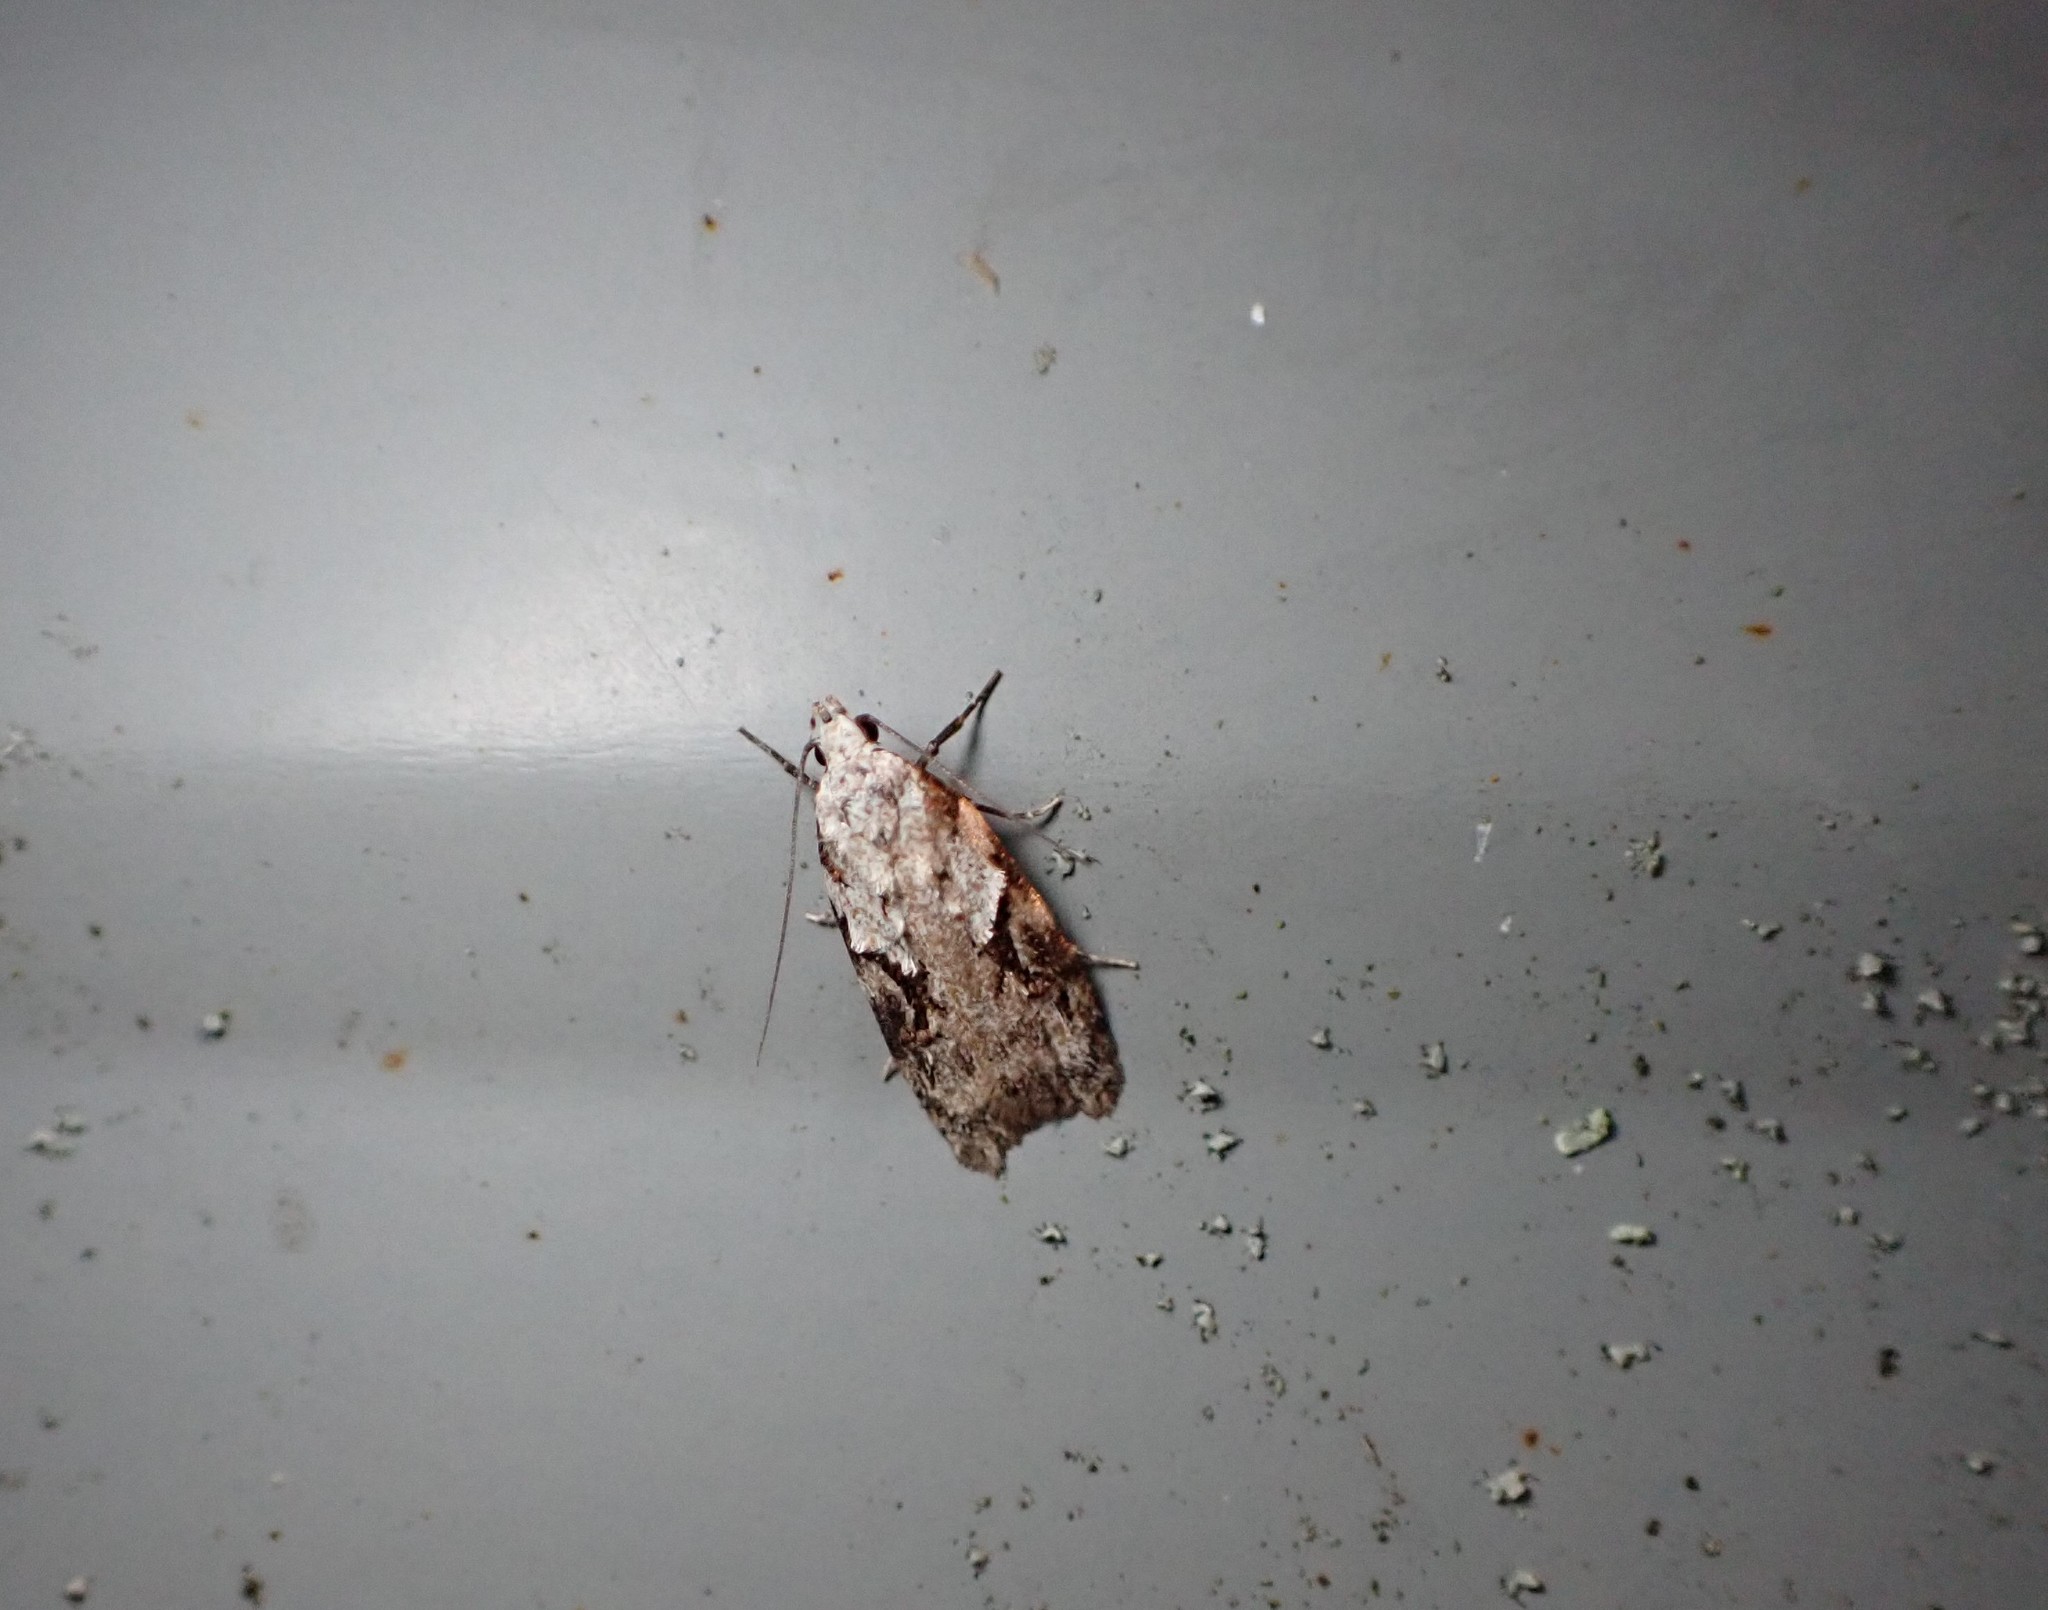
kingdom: Animalia
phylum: Arthropoda
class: Insecta
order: Lepidoptera
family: Oecophoridae
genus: Izatha
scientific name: Izatha mesoschista
